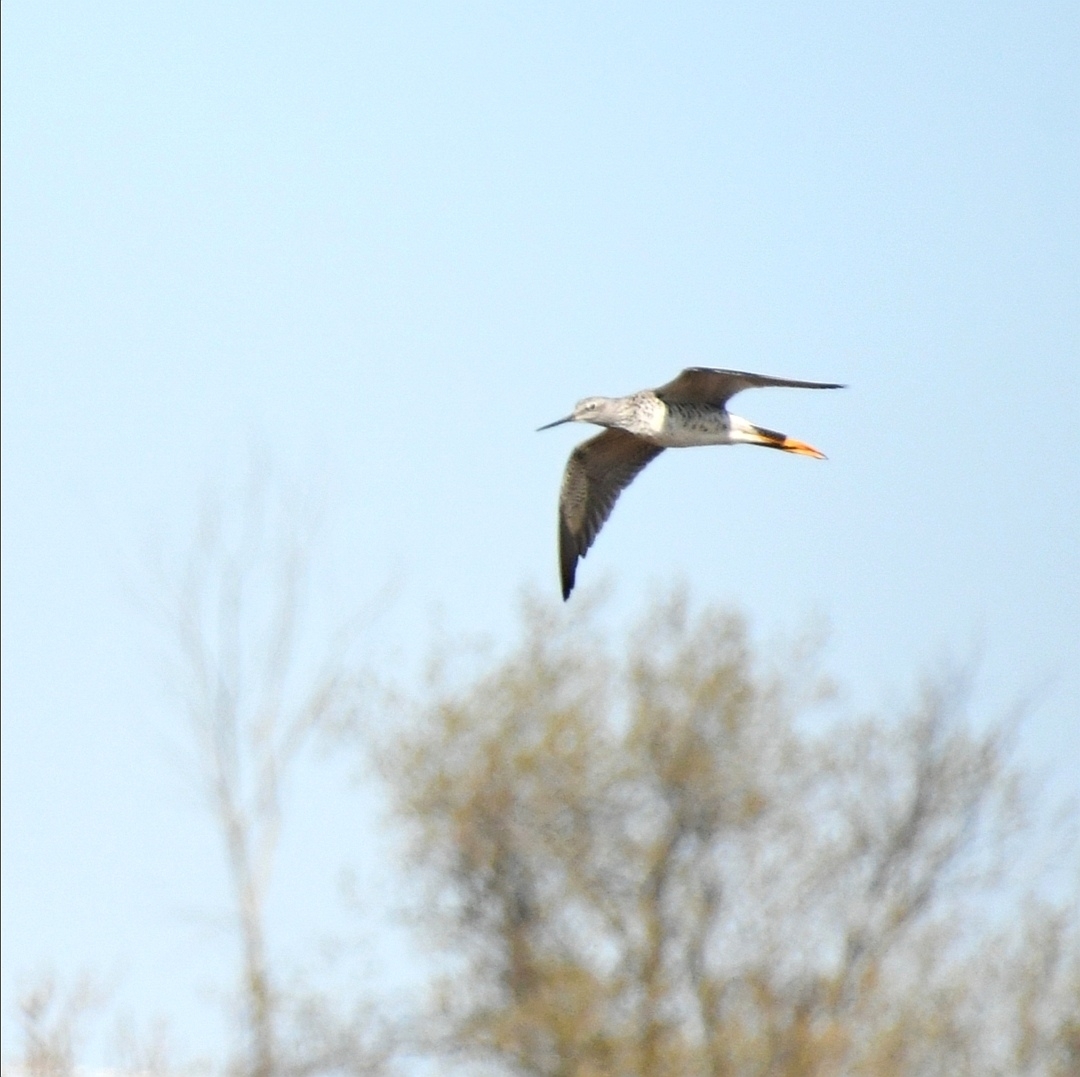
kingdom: Animalia
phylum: Chordata
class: Aves
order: Charadriiformes
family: Scolopacidae
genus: Tringa
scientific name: Tringa flavipes
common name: Lesser yellowlegs
